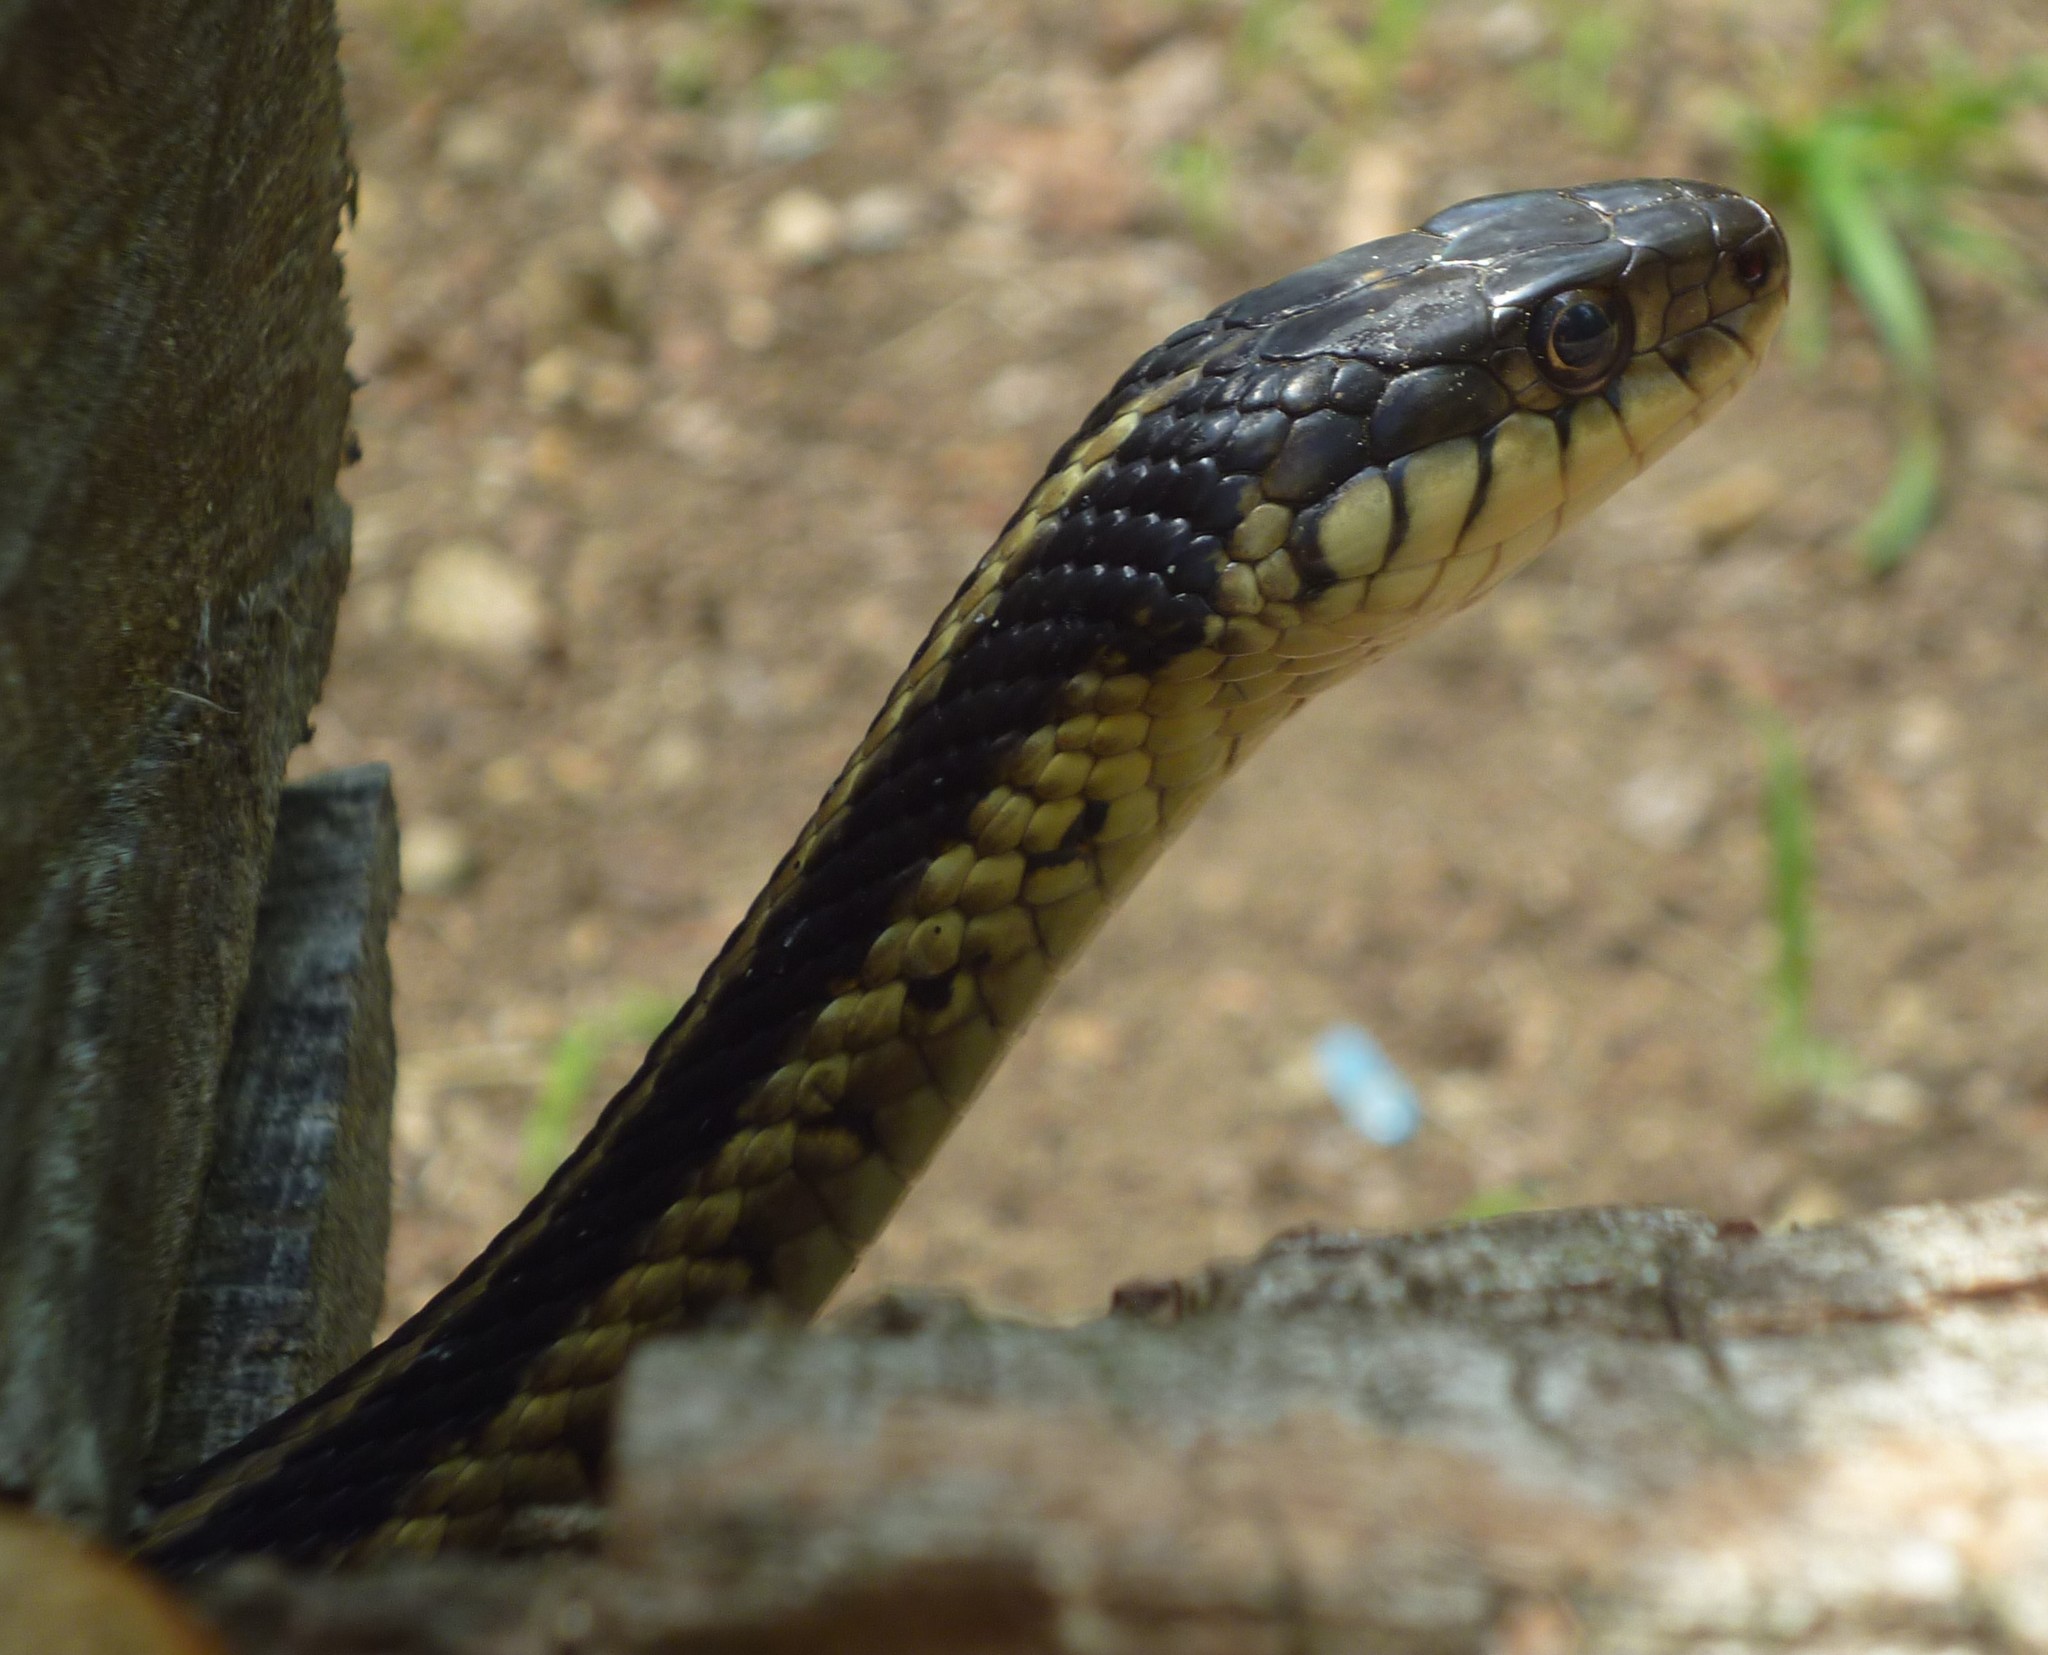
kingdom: Animalia
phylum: Chordata
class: Squamata
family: Colubridae
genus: Thamnophis
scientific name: Thamnophis sirtalis
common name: Common garter snake
